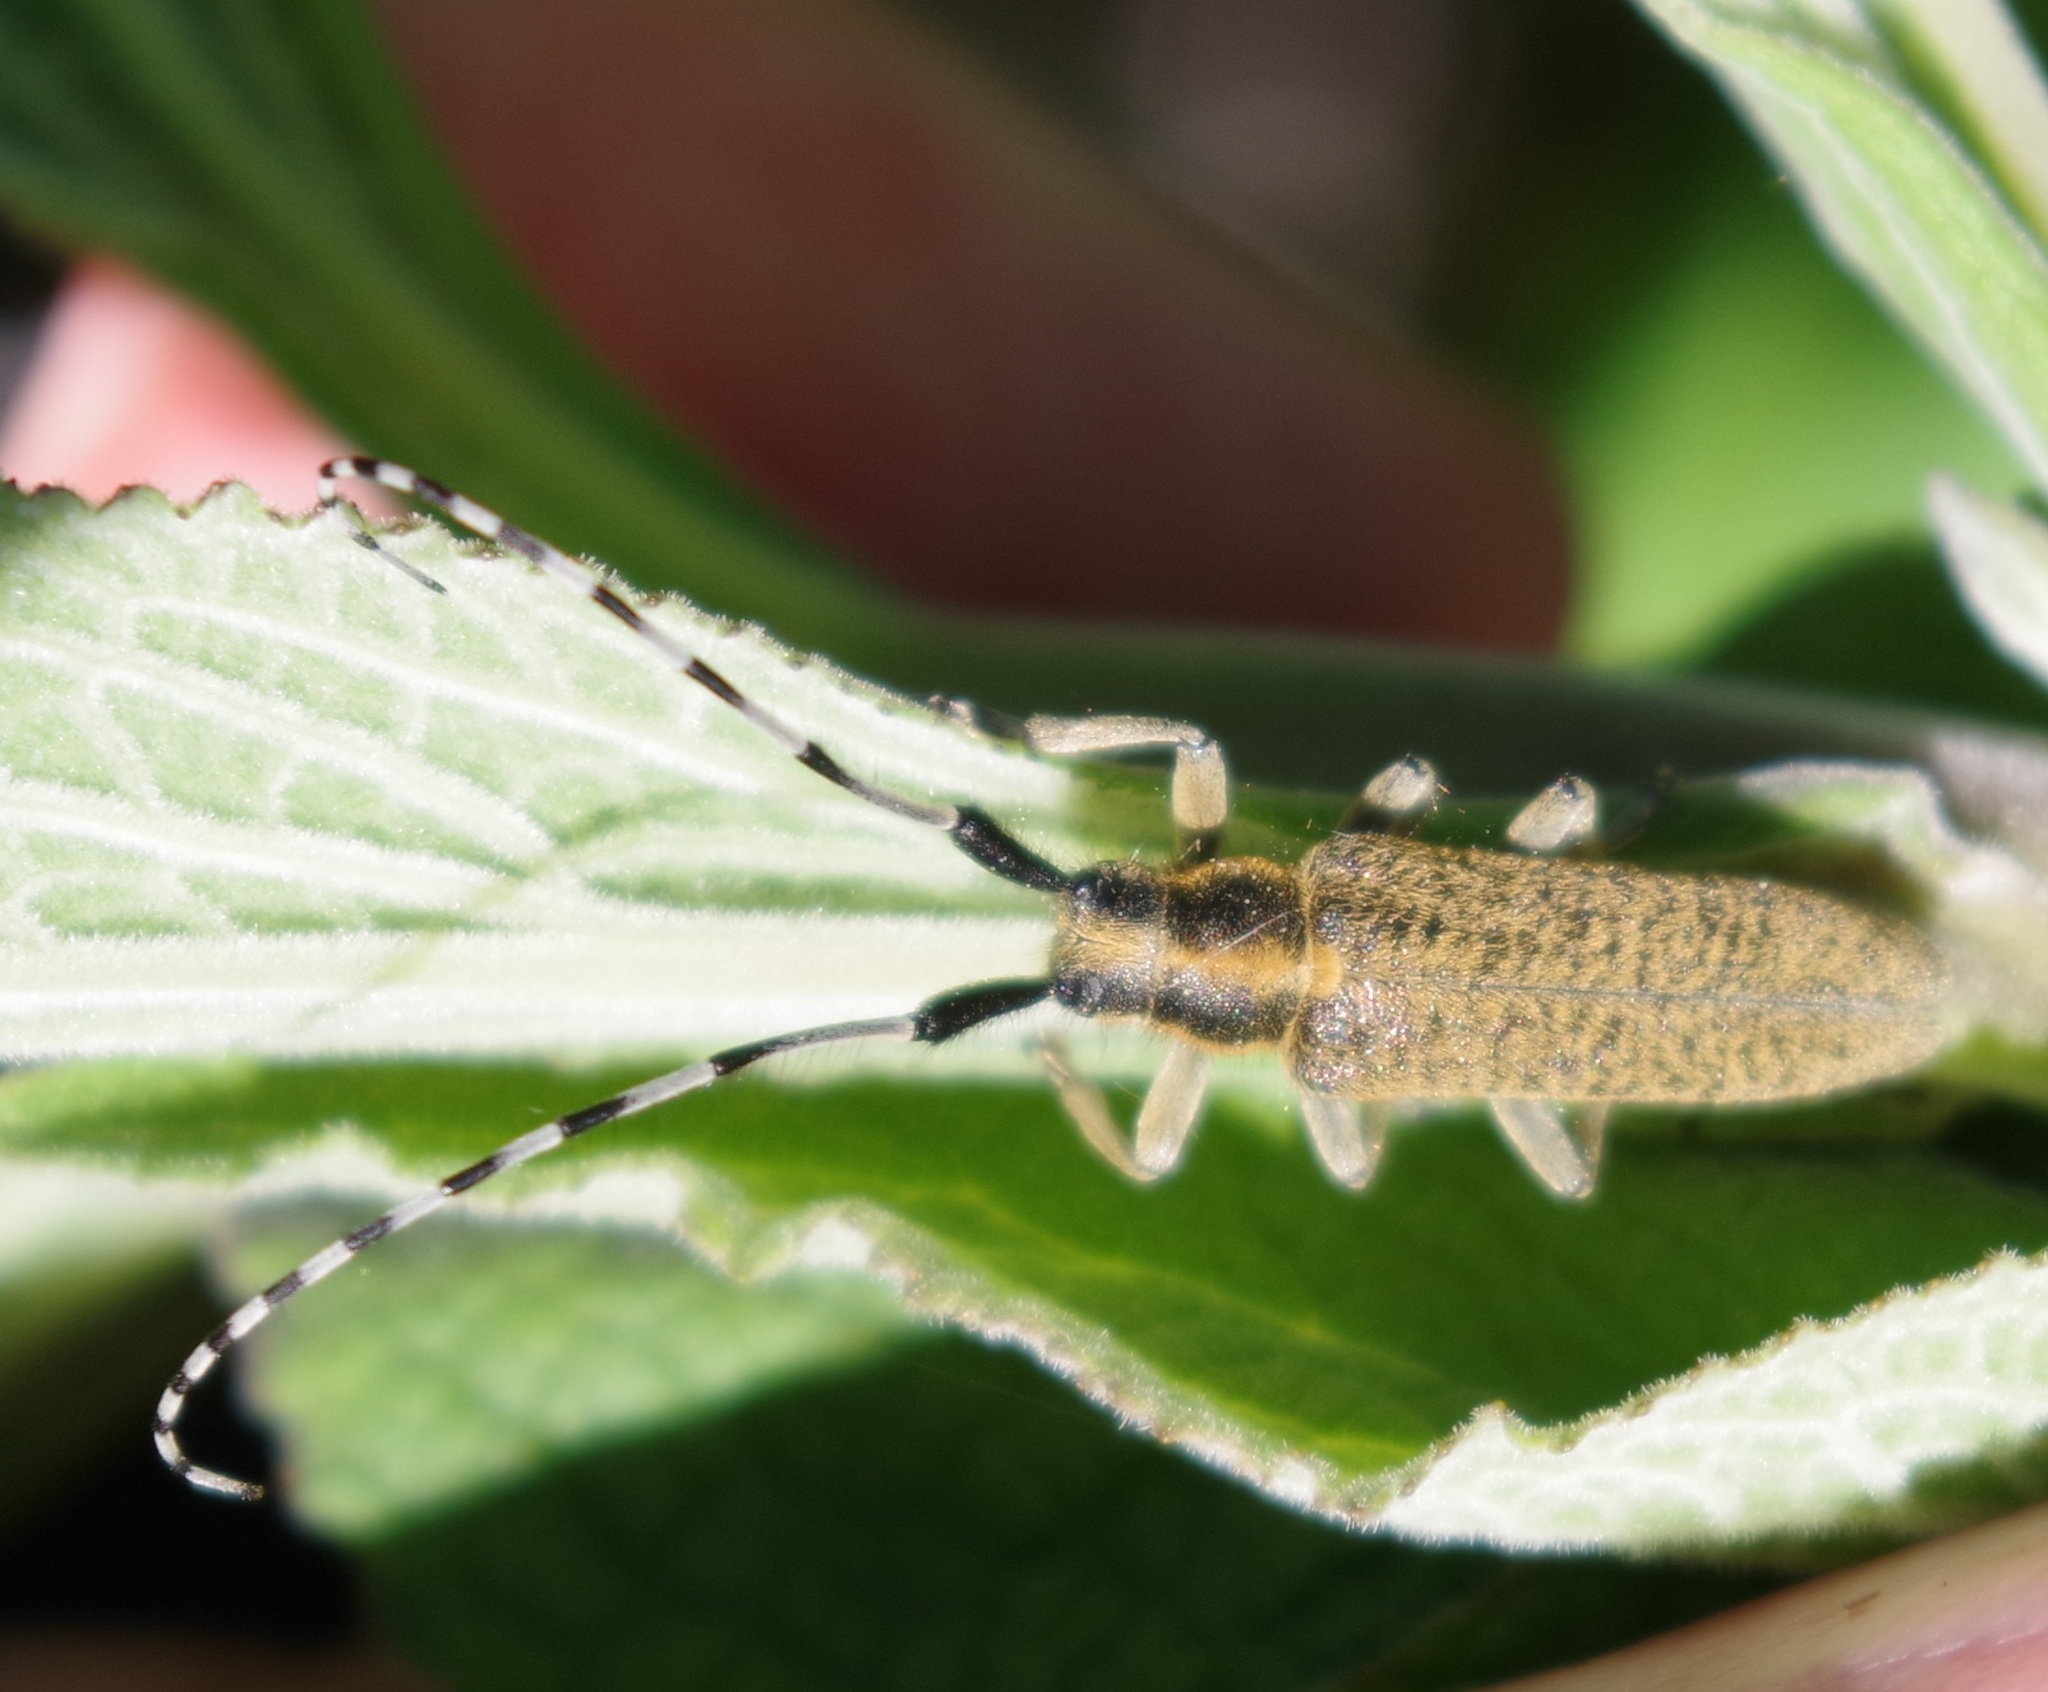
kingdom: Animalia
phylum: Arthropoda
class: Insecta
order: Coleoptera
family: Cerambycidae
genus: Agapanthia
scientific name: Agapanthia villosoviridescens
